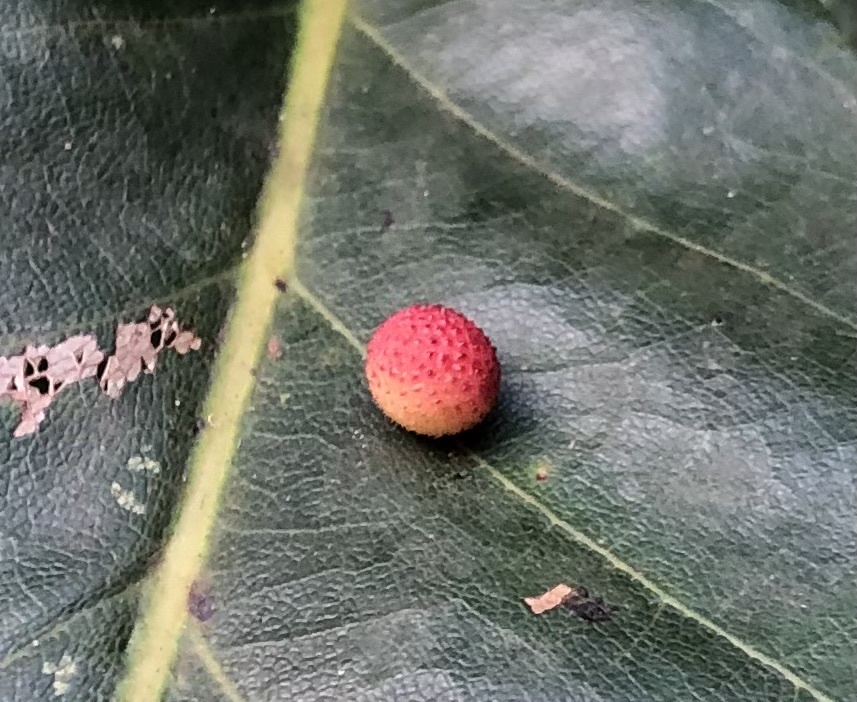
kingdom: Animalia
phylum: Arthropoda
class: Insecta
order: Hymenoptera
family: Cynipidae
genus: Acraspis
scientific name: Acraspis quercushirta
